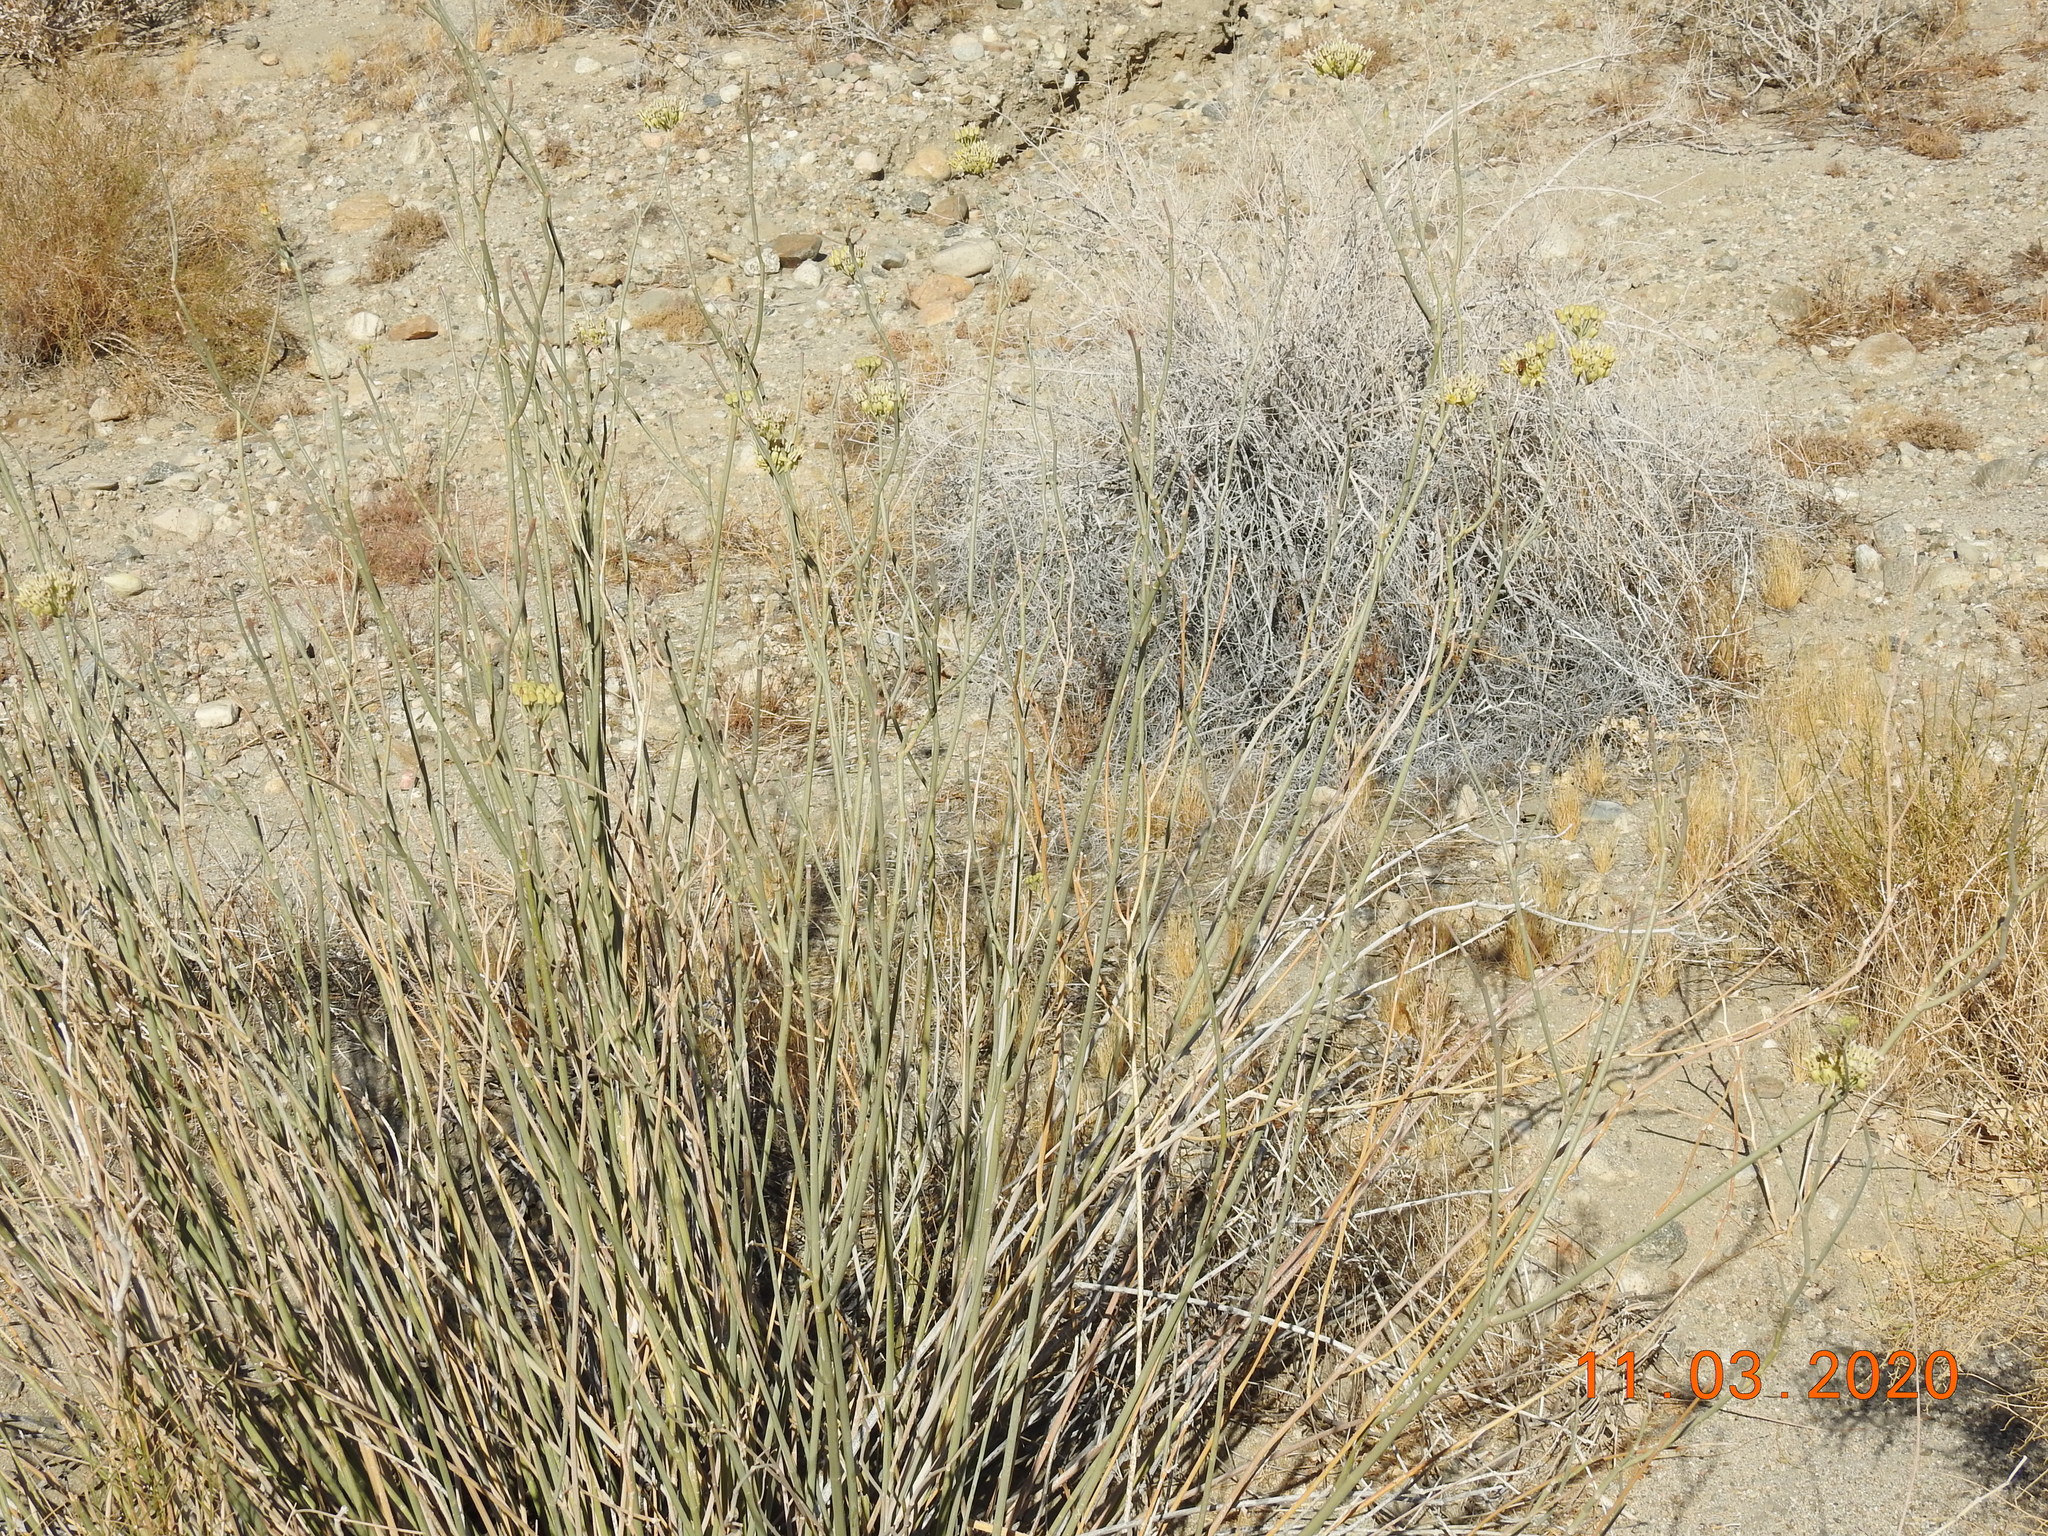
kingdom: Plantae
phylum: Tracheophyta
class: Magnoliopsida
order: Gentianales
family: Apocynaceae
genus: Asclepias
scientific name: Asclepias subulata
